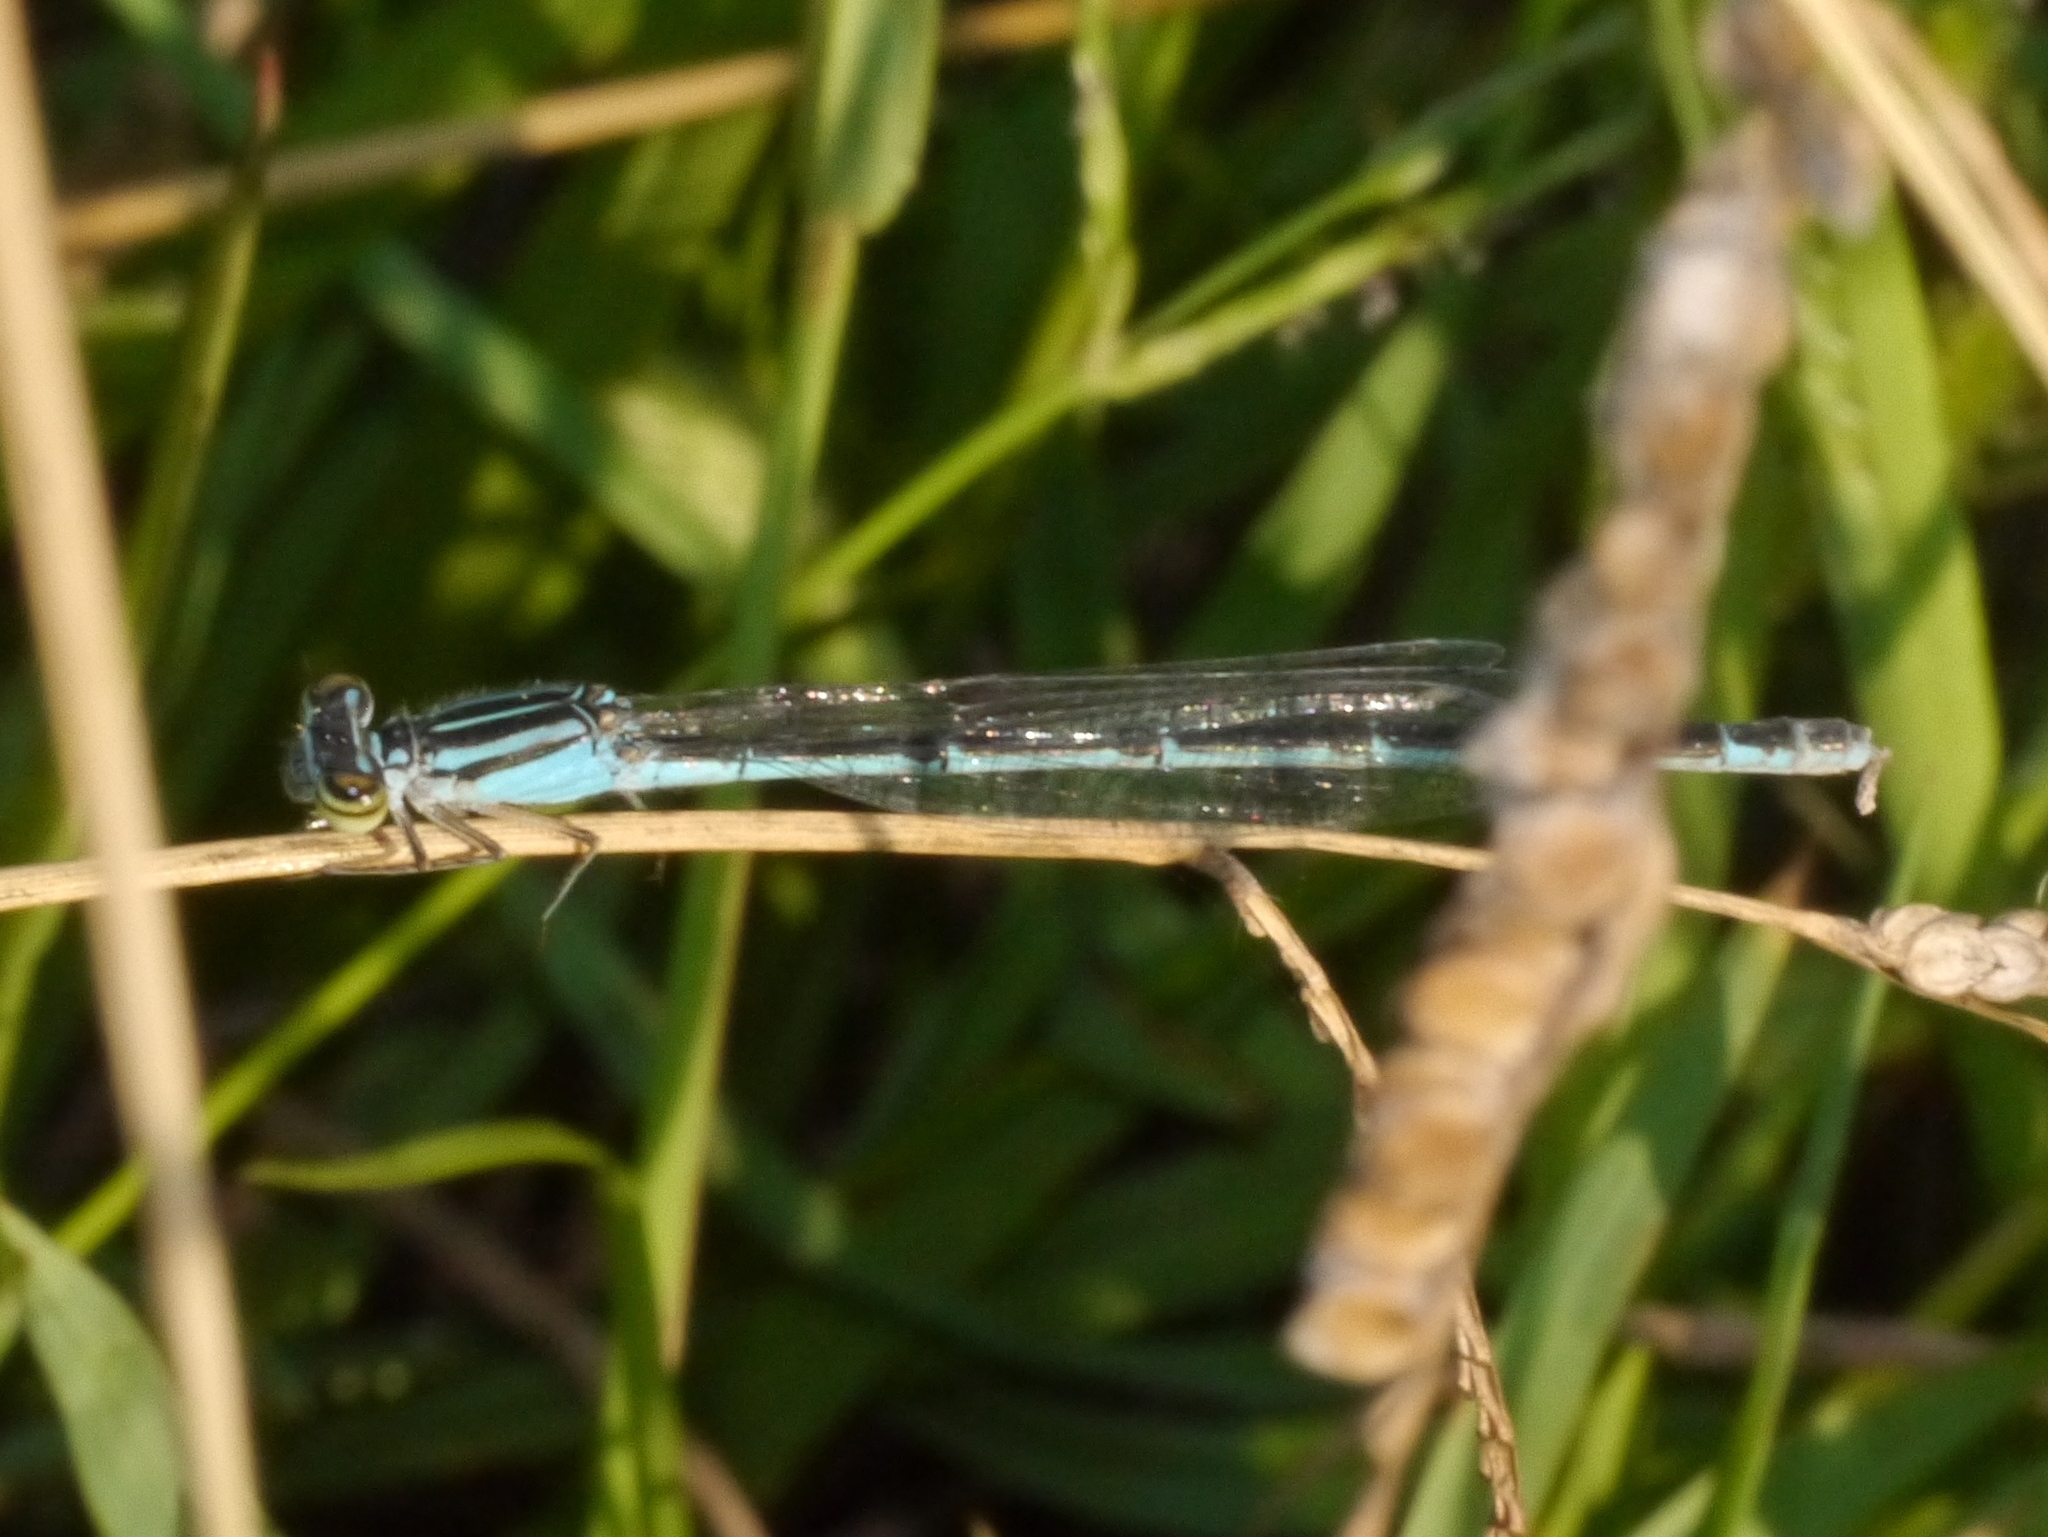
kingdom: Animalia
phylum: Arthropoda
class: Insecta
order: Odonata
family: Coenagrionidae
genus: Enallagma
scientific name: Enallagma durum
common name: Big bluet
